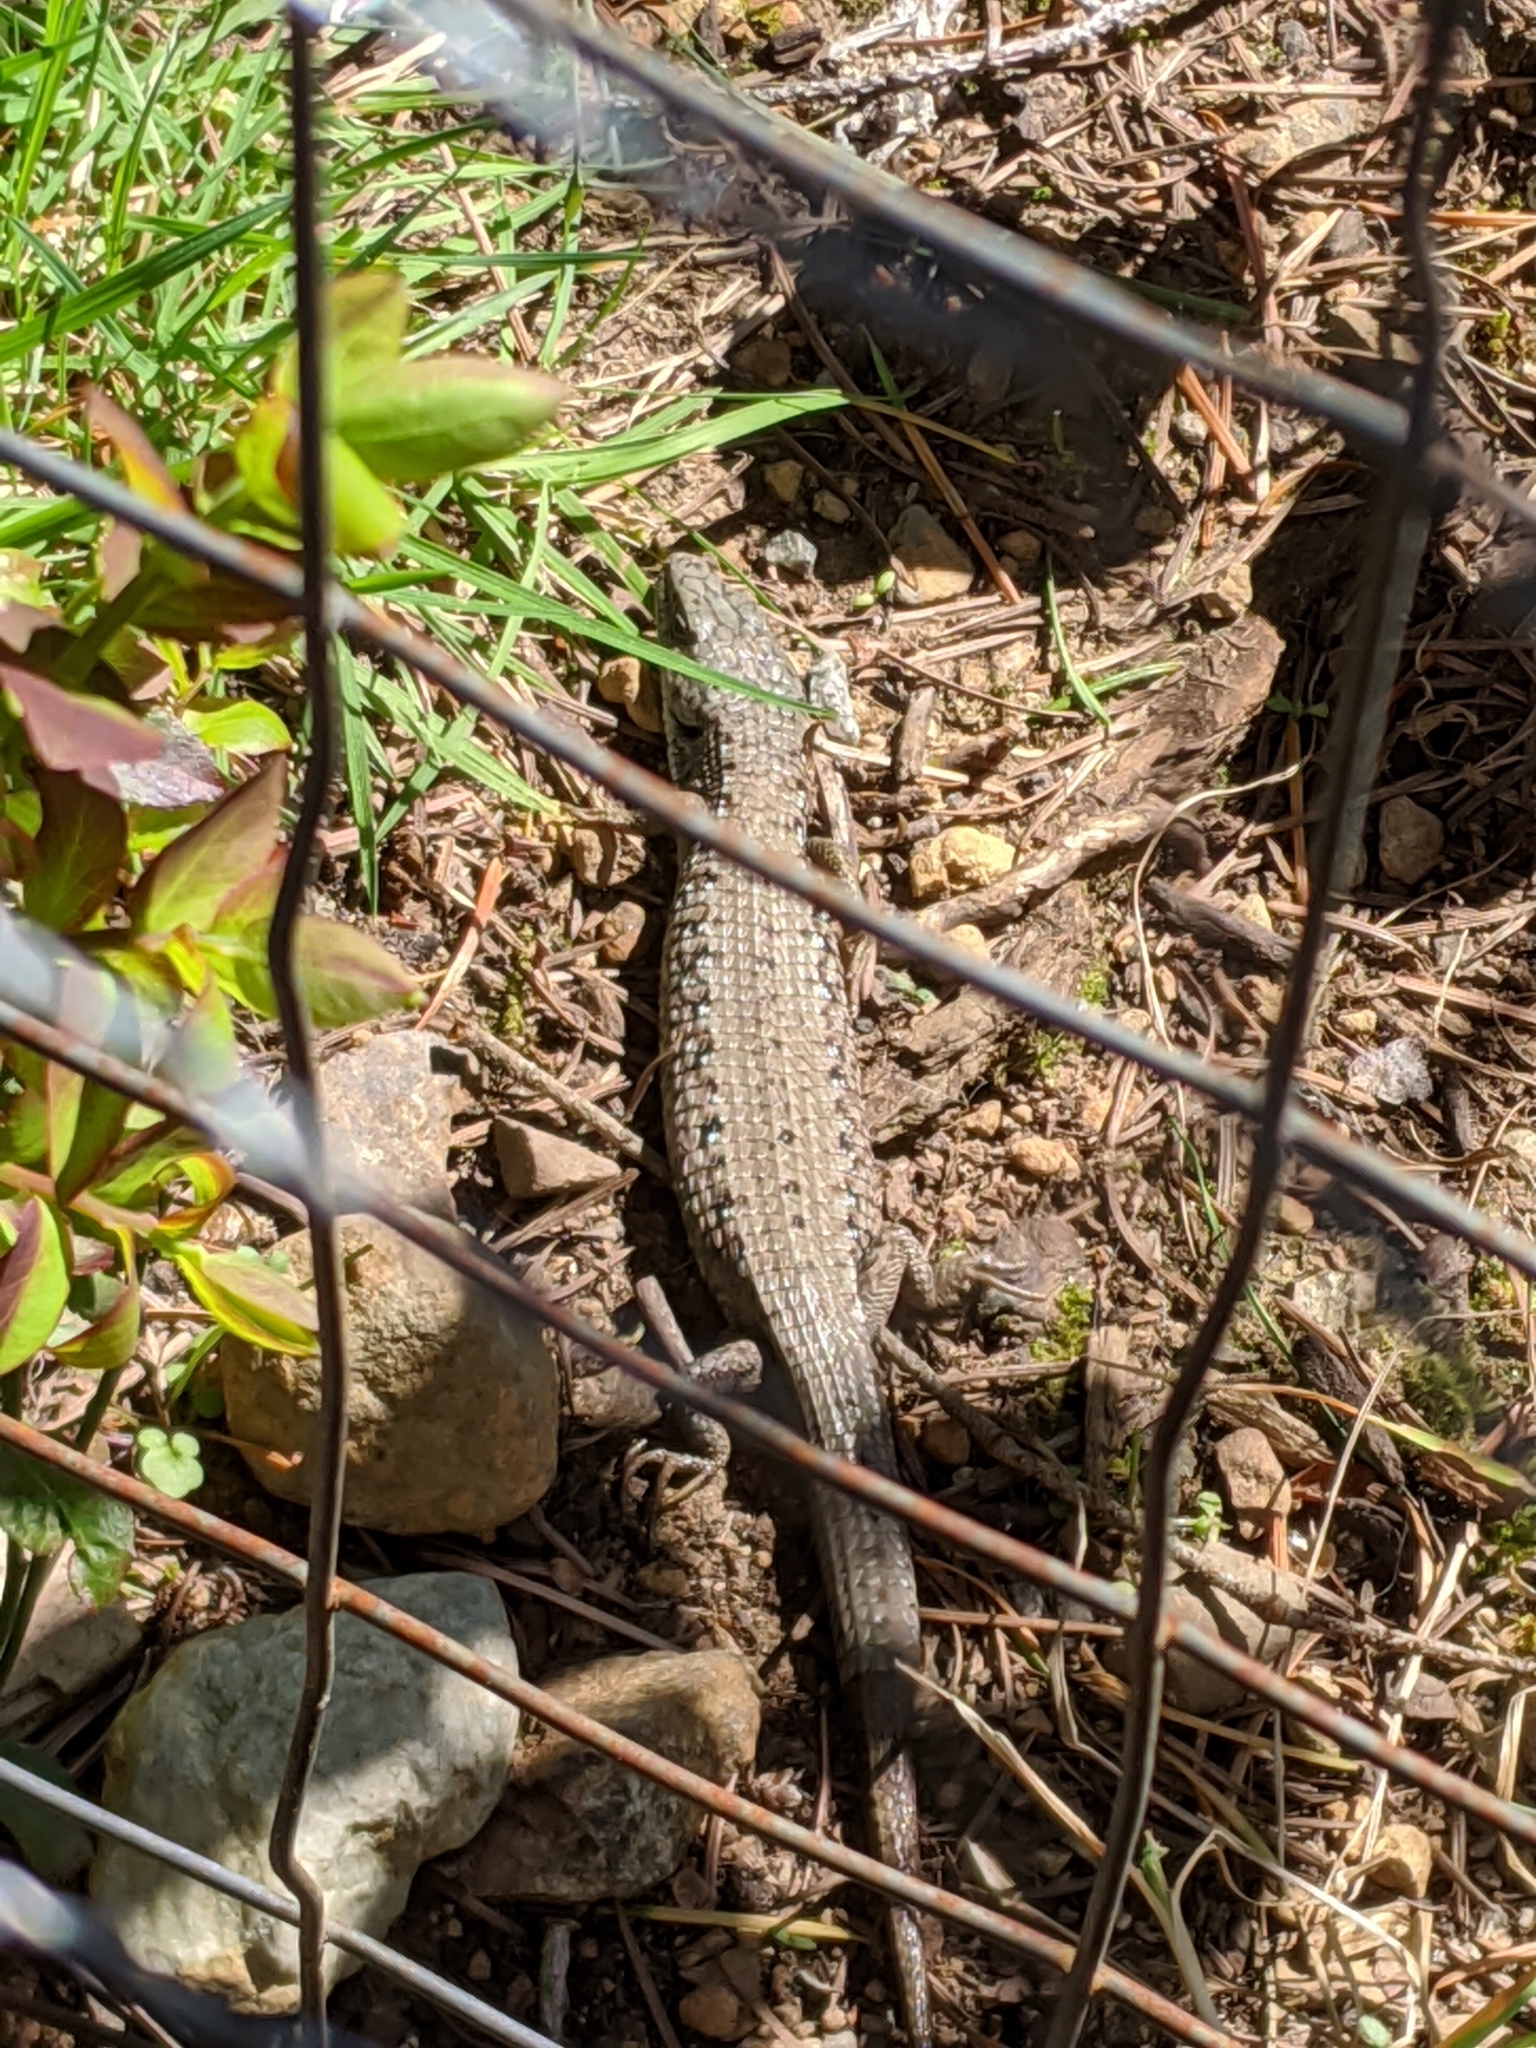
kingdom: Animalia
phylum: Chordata
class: Squamata
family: Anguidae
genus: Elgaria
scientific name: Elgaria coerulea
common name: Northern alligator lizard
